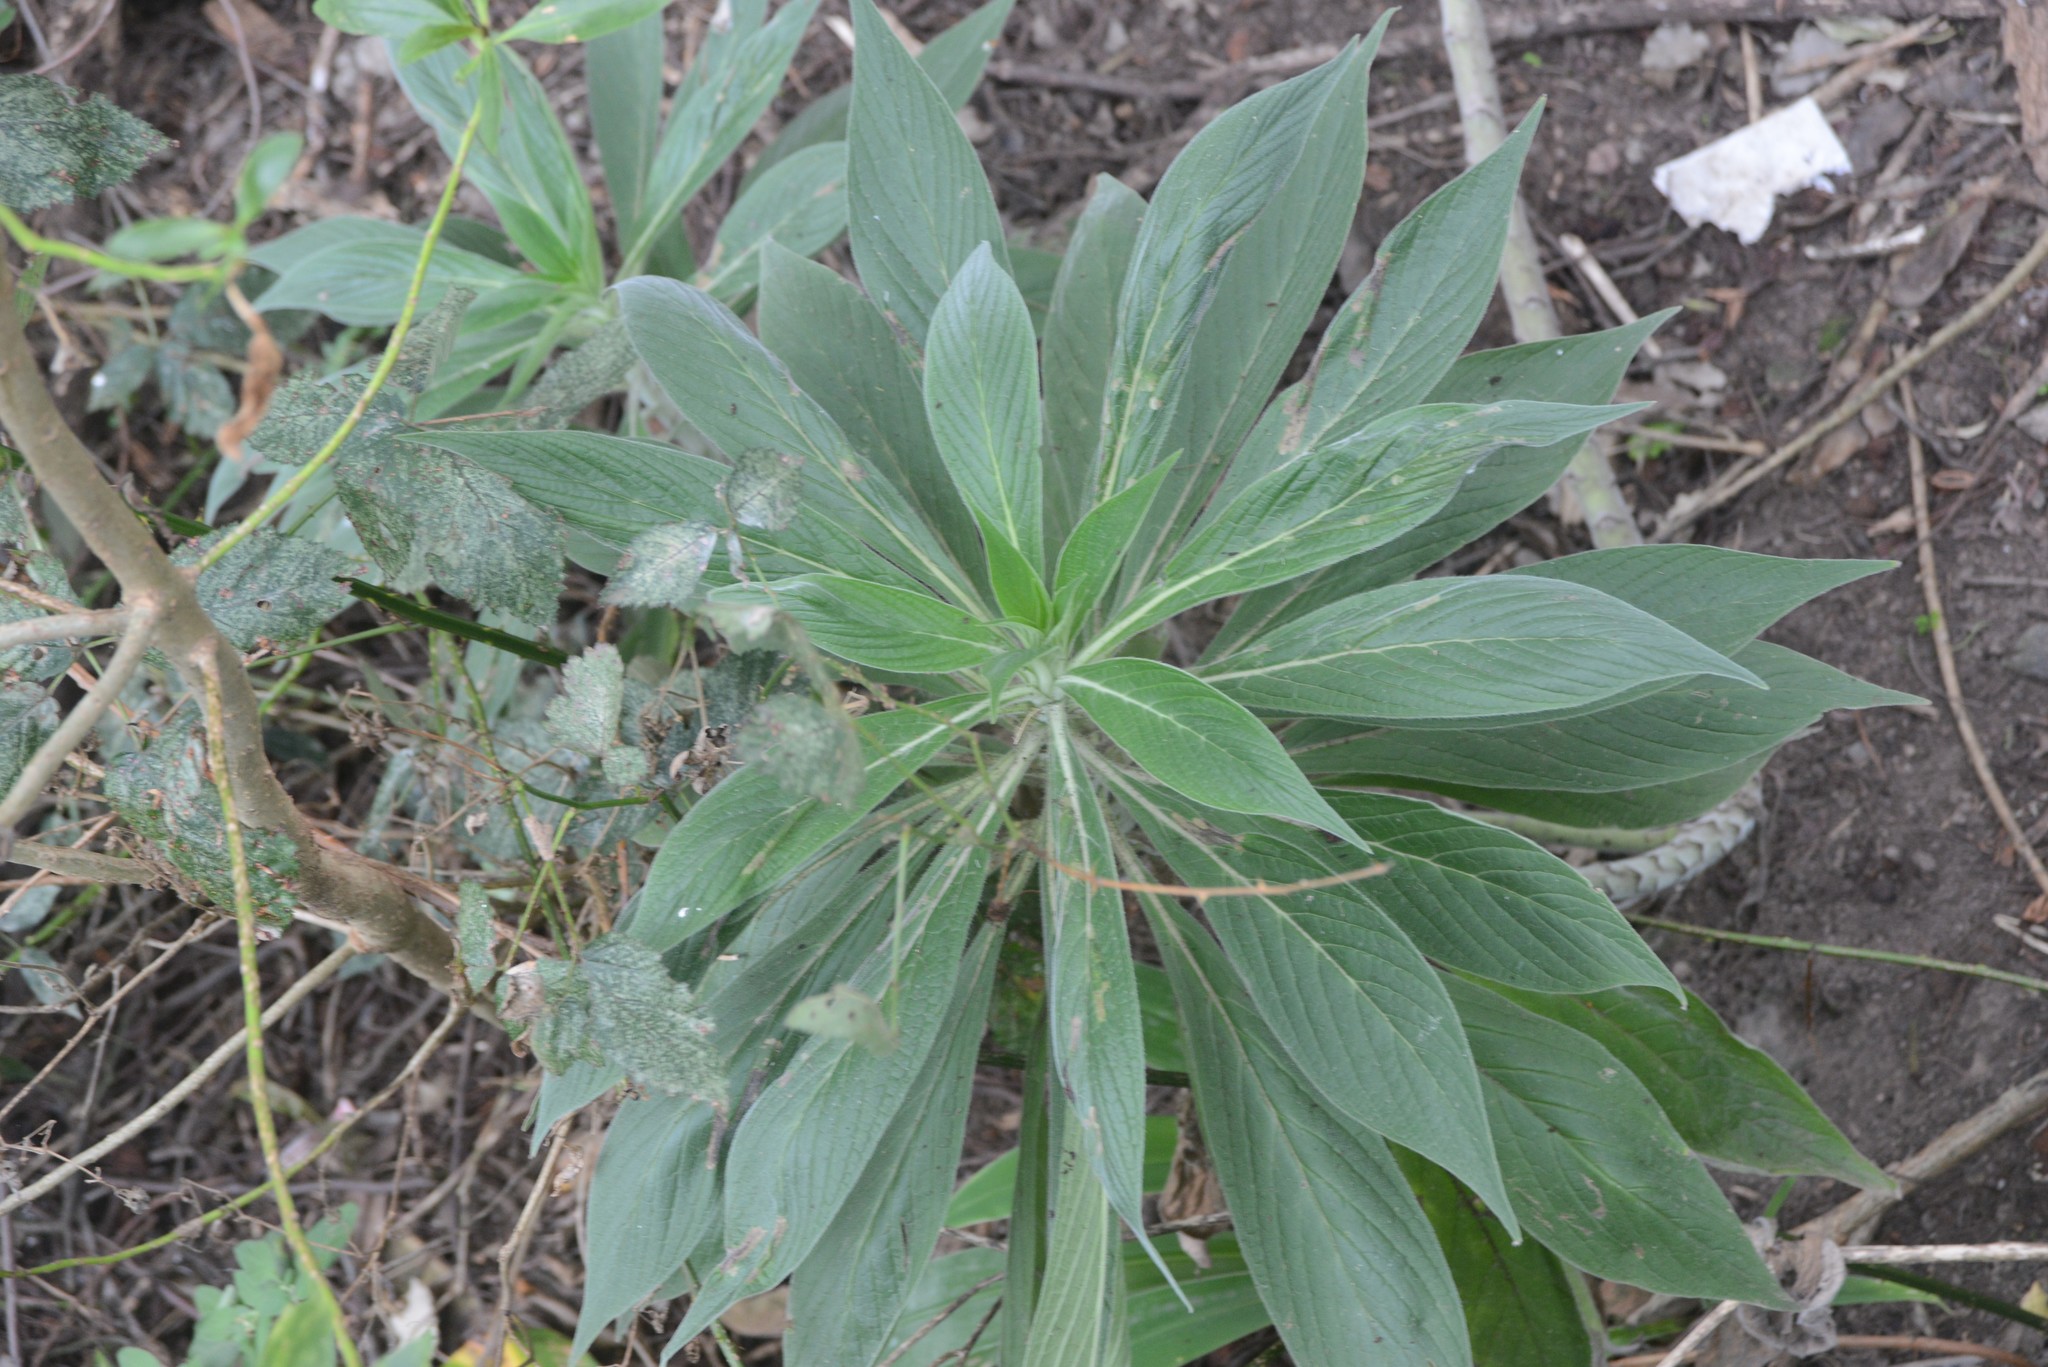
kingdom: Plantae
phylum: Tracheophyta
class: Magnoliopsida
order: Boraginales
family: Boraginaceae
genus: Echium
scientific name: Echium candicans
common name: Pride of madeira
